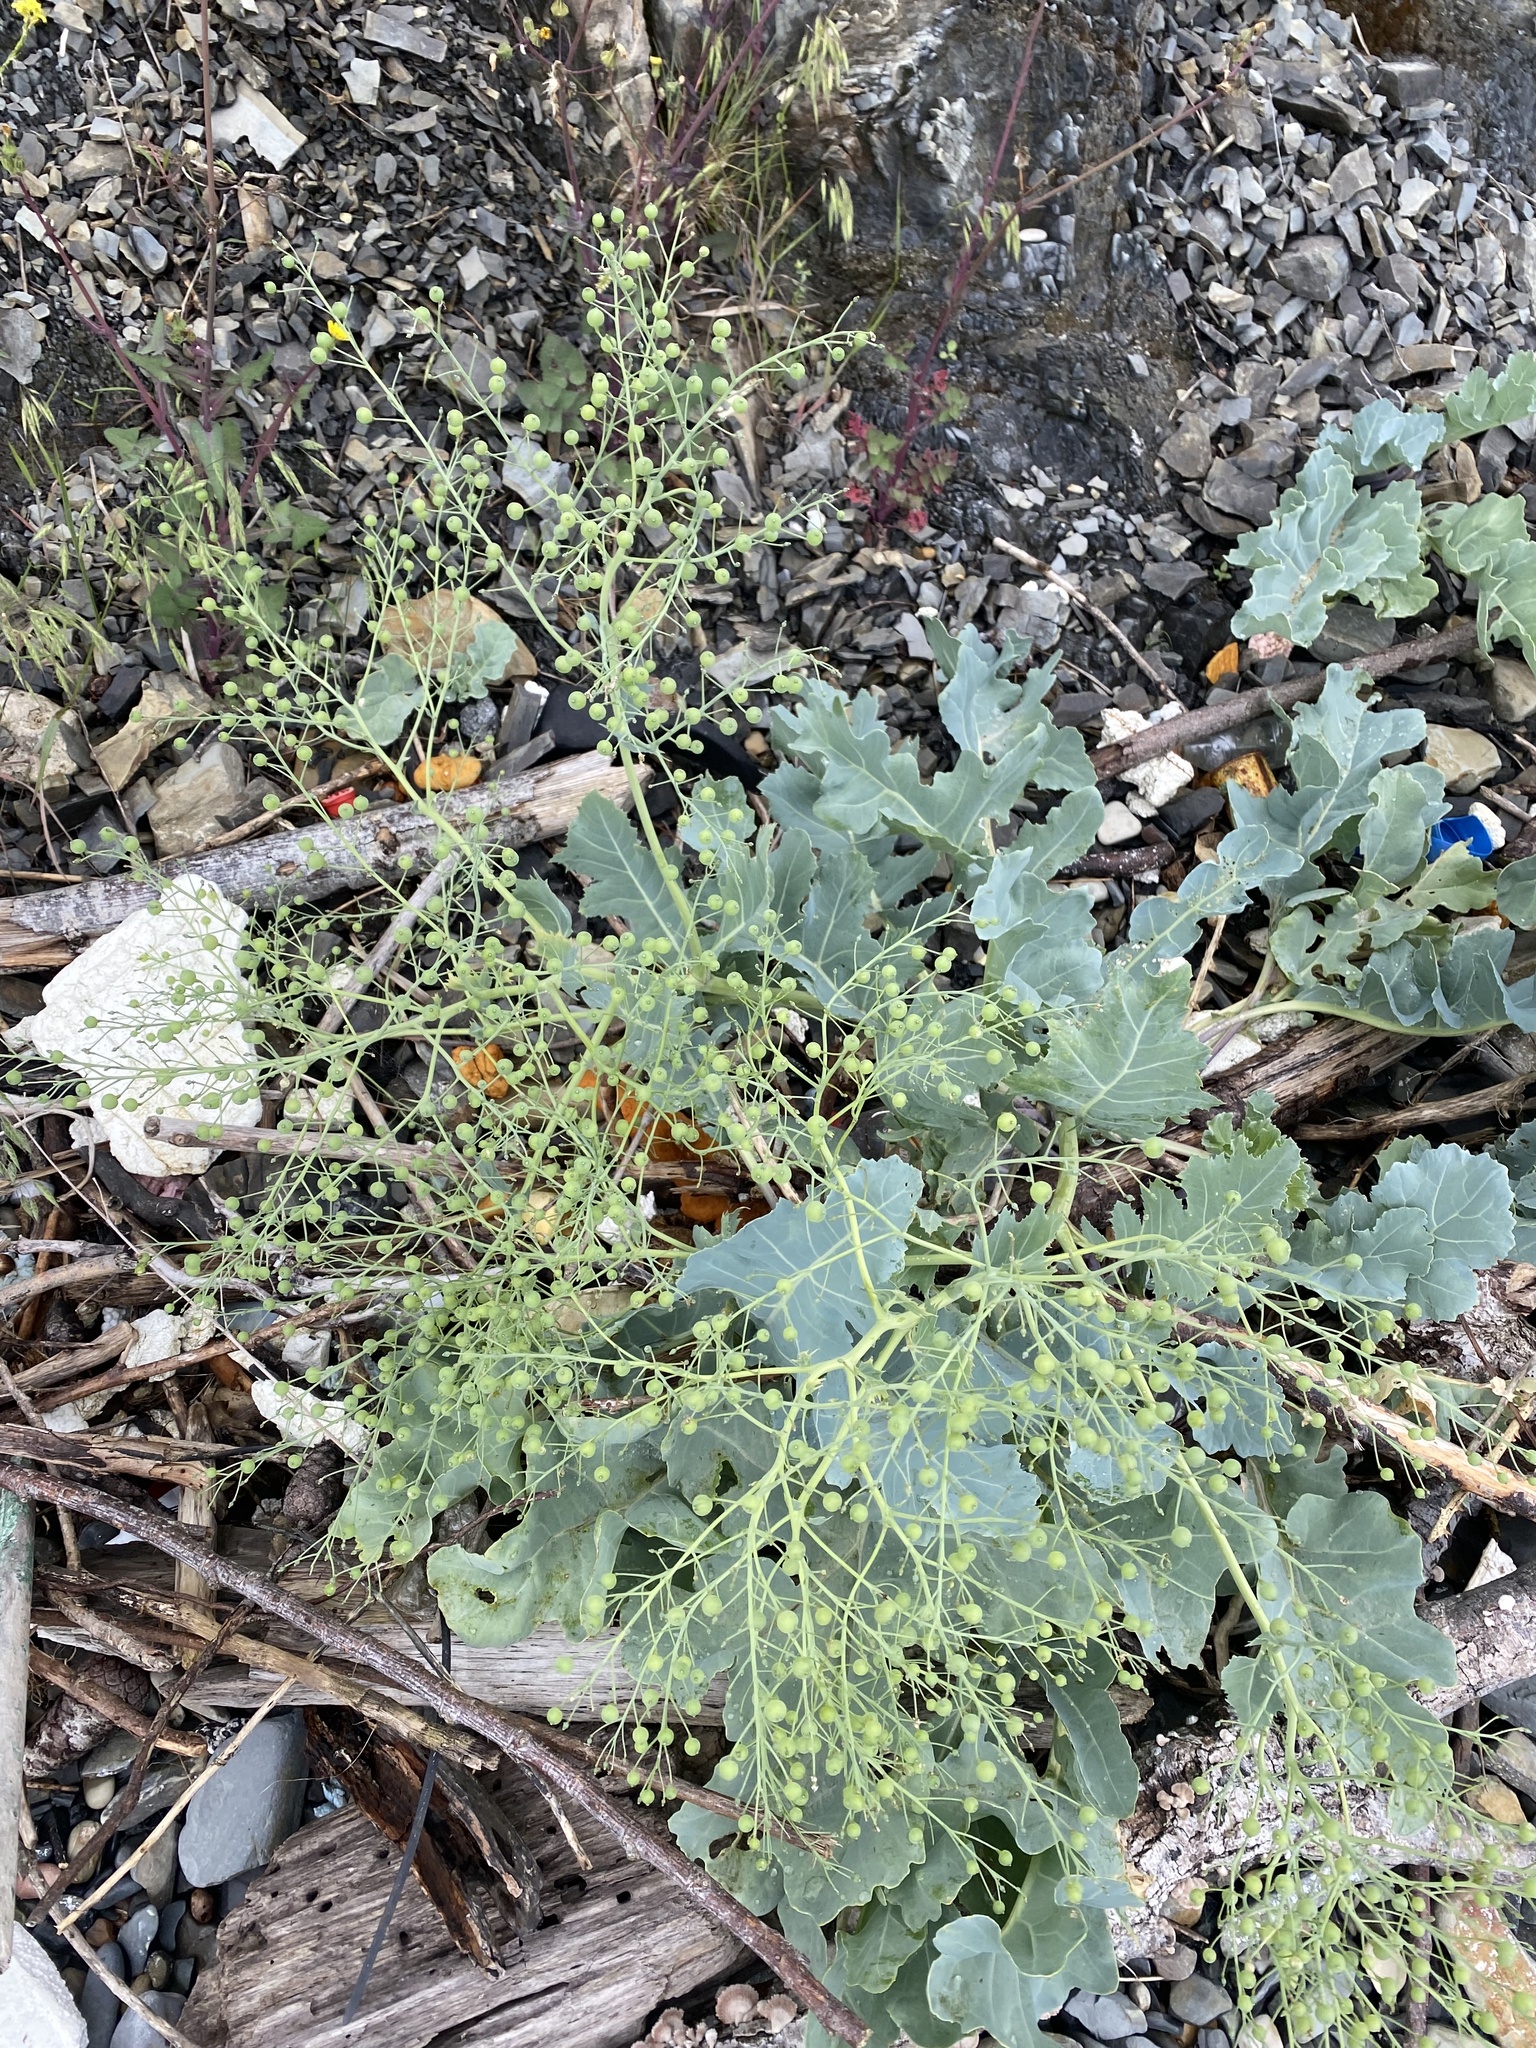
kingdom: Plantae
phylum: Tracheophyta
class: Magnoliopsida
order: Brassicales
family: Brassicaceae
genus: Crambe
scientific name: Crambe maritima
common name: Sea-kale
